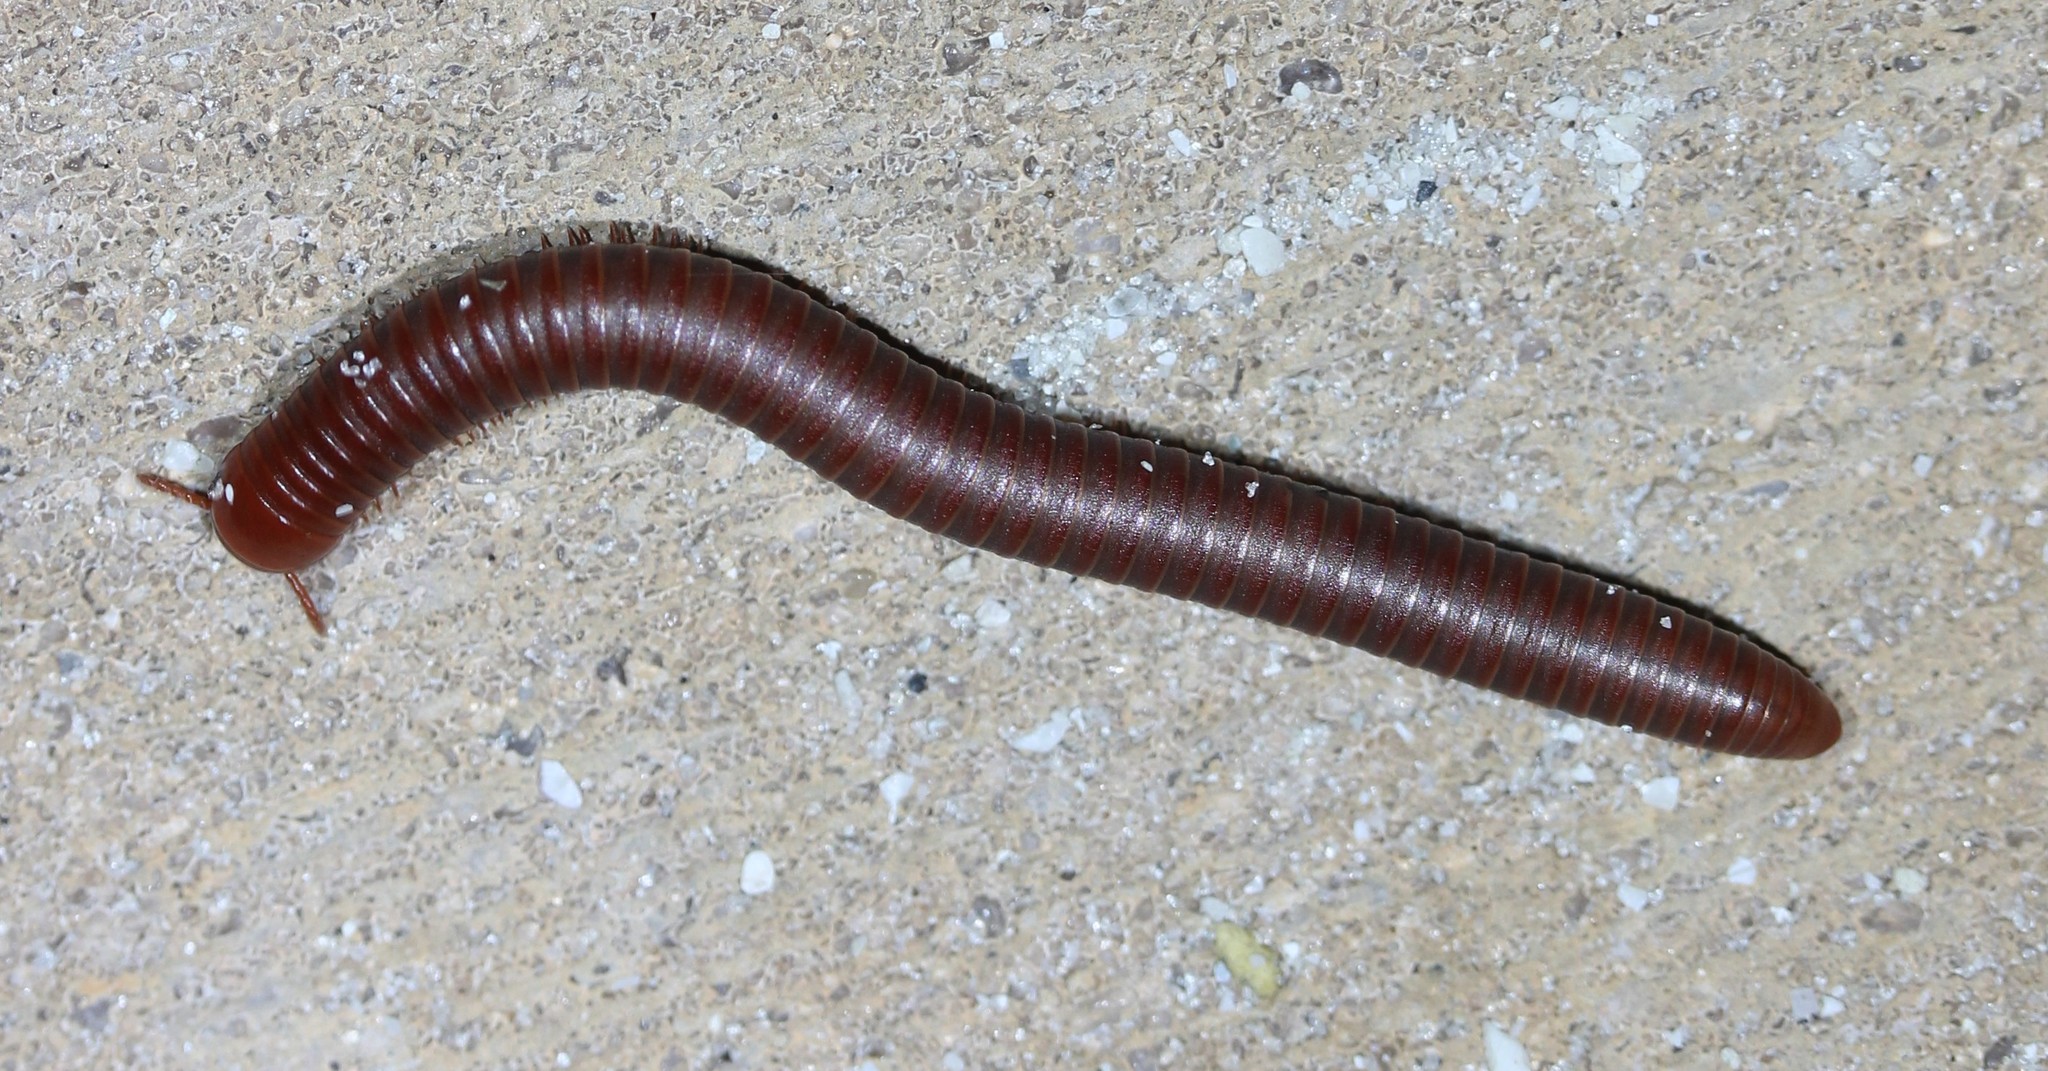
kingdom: Animalia
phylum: Arthropoda
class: Diplopoda
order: Spirobolida
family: Pachybolidae
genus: Trigoniulus
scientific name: Trigoniulus corallinus
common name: Millipede
